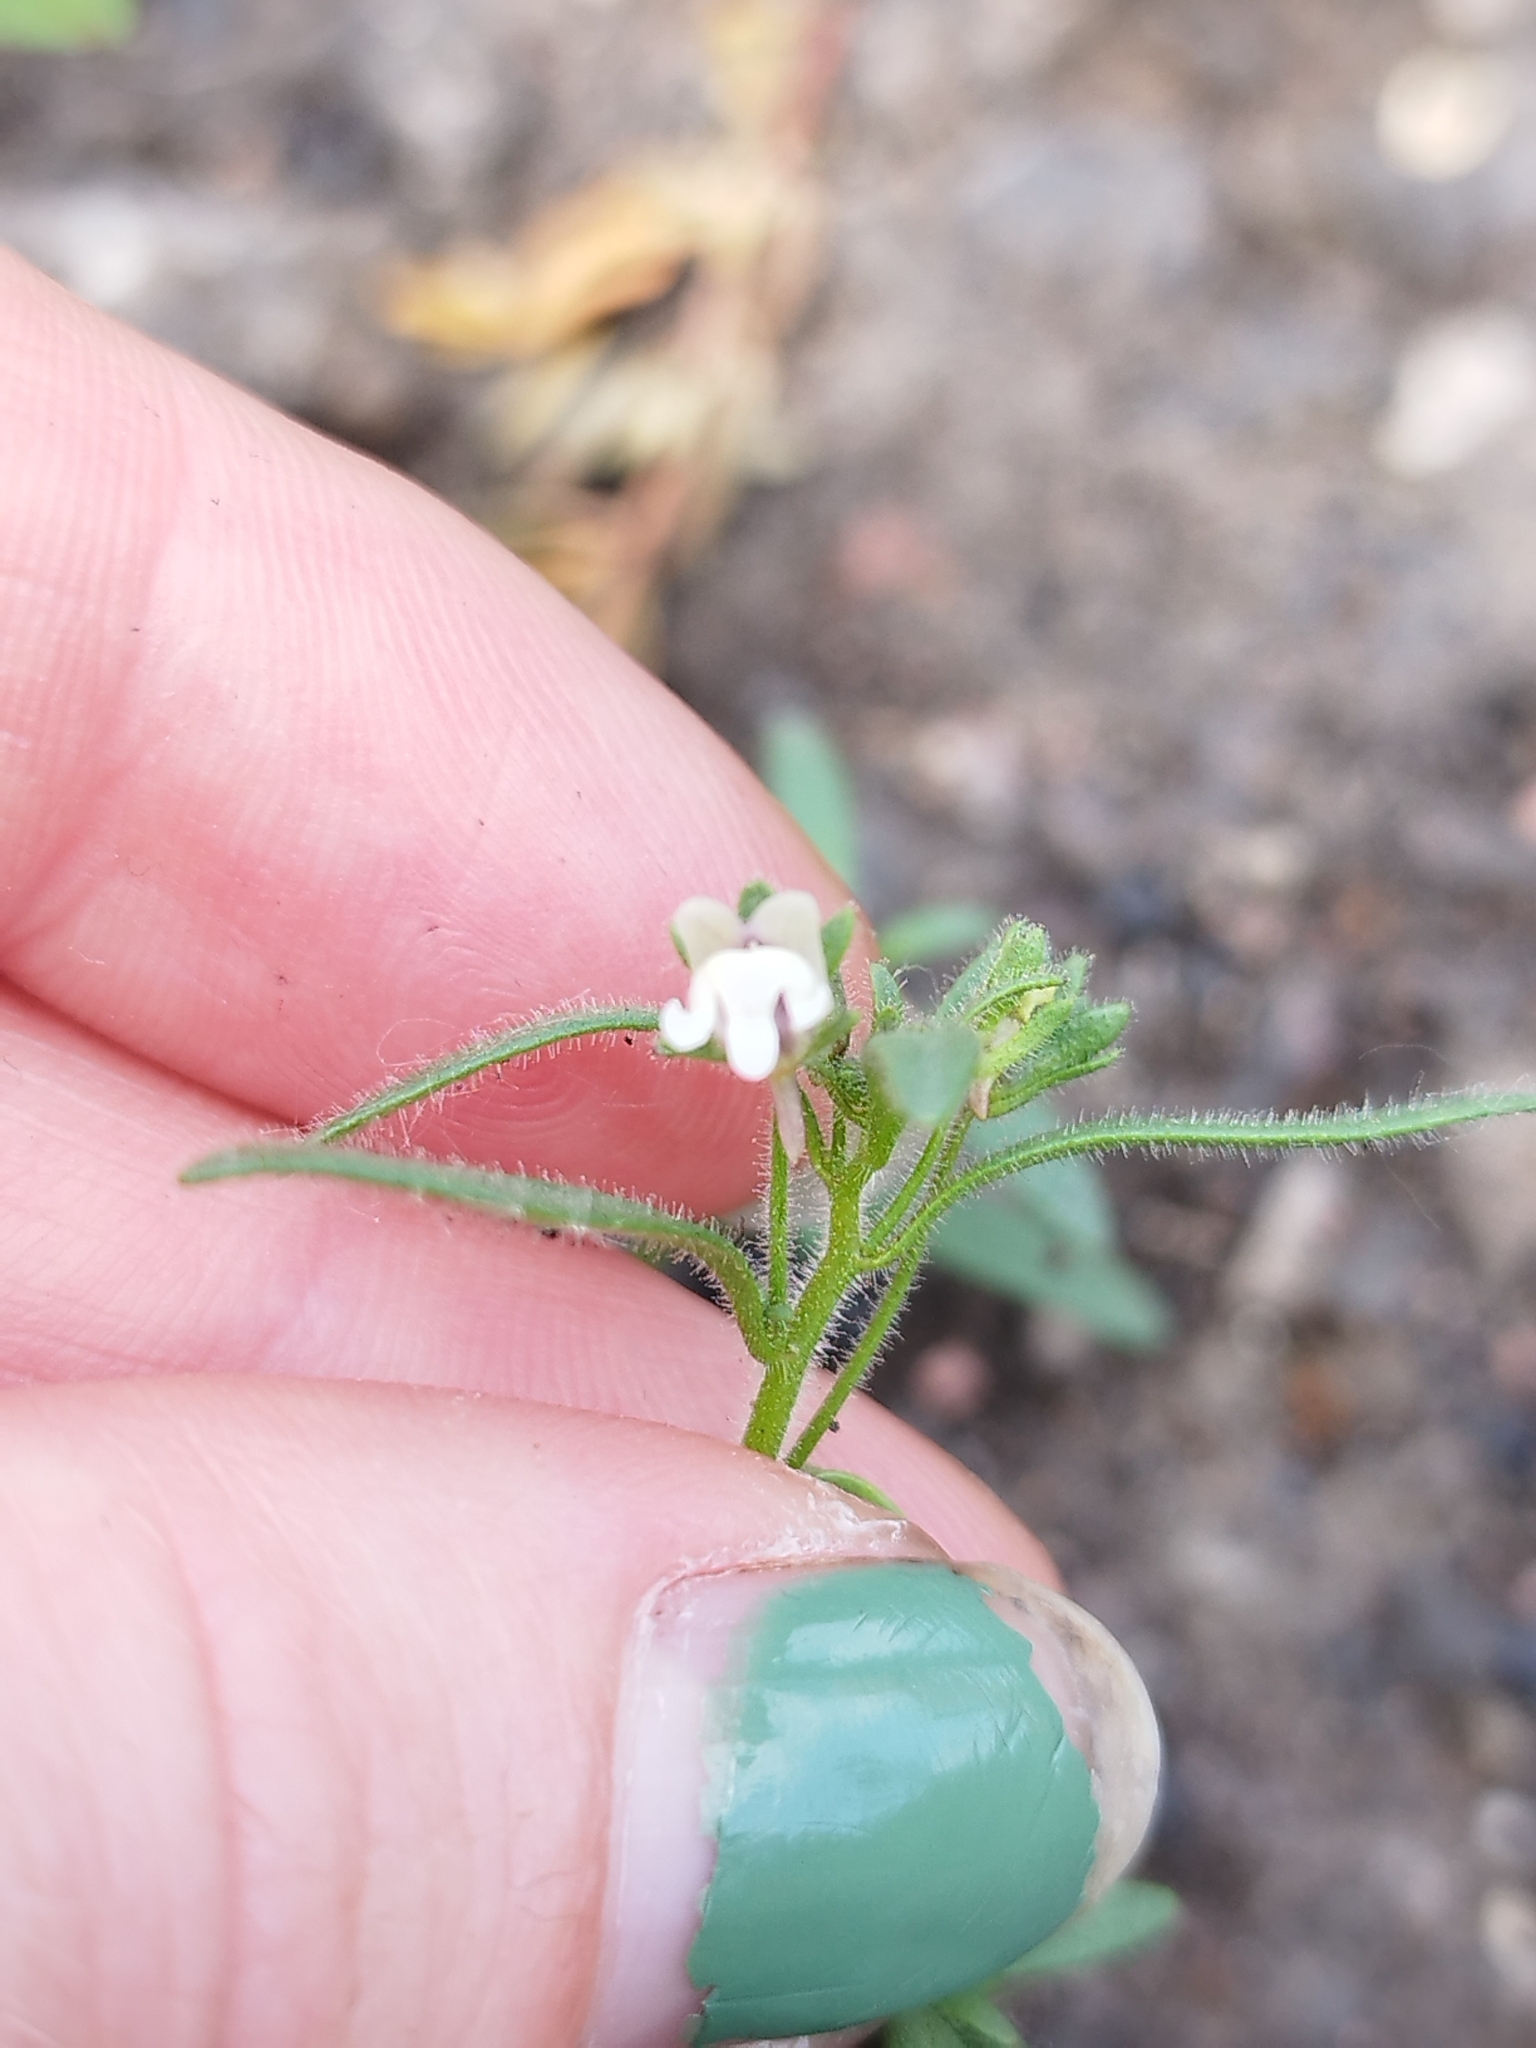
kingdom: Plantae
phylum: Tracheophyta
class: Magnoliopsida
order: Lamiales
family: Plantaginaceae
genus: Chaenorhinum
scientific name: Chaenorhinum minus
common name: Dwarf snapdragon
